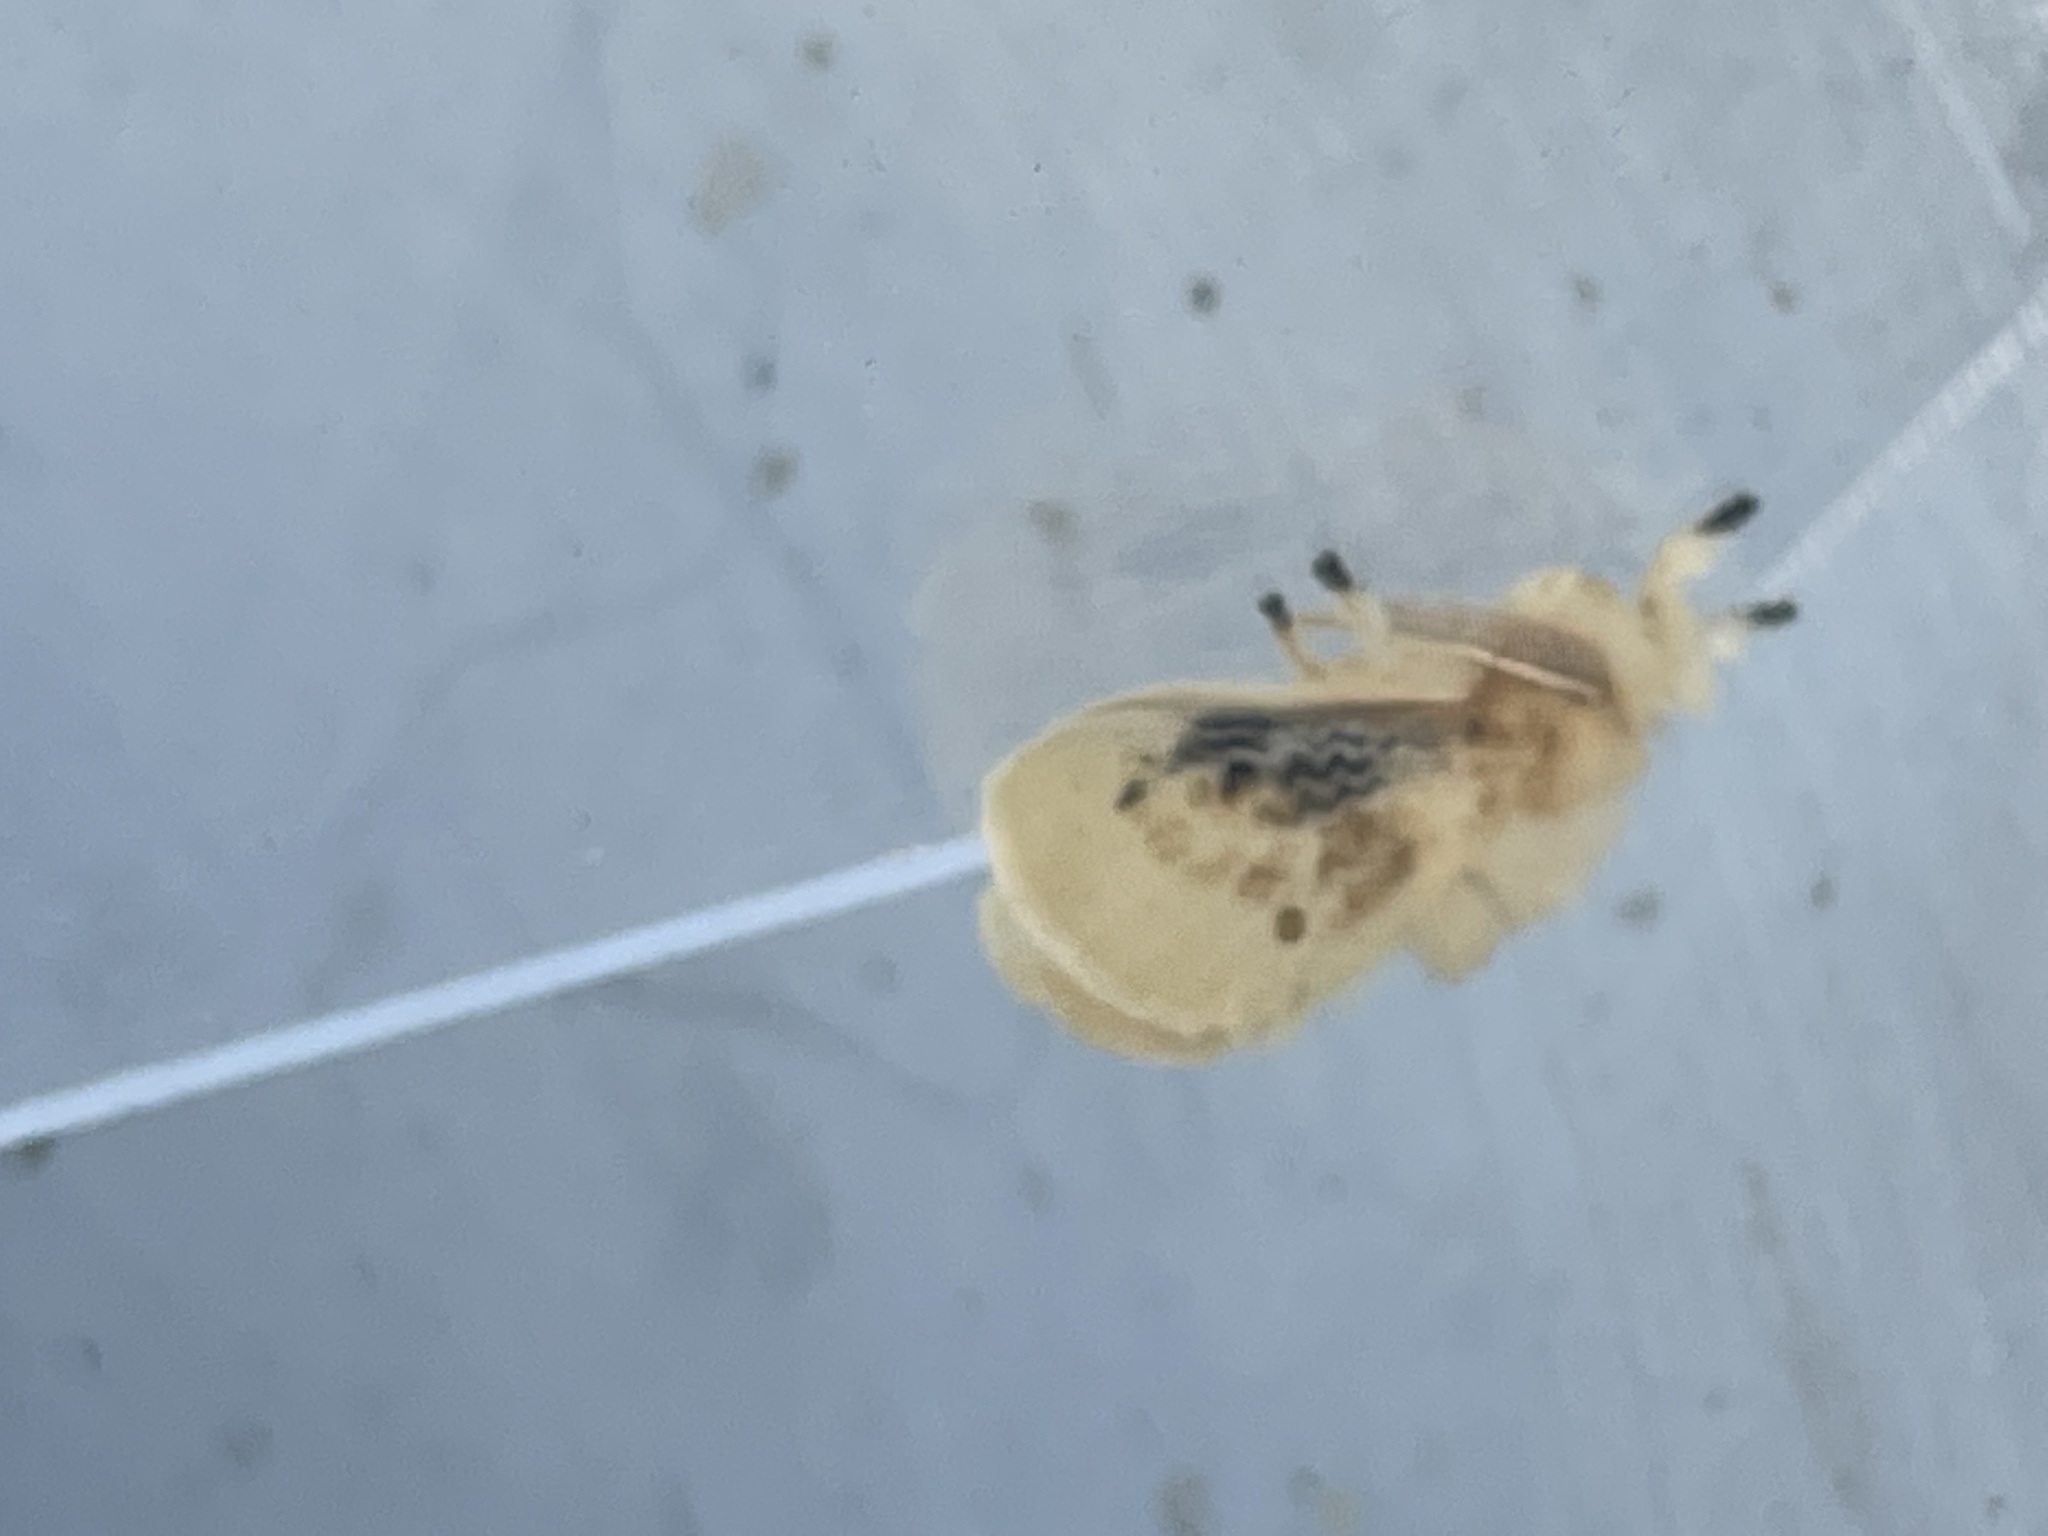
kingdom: Animalia
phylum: Arthropoda
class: Insecta
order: Lepidoptera
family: Megalopygidae
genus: Megalopyge
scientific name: Megalopyge crispata
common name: Black-waved flannel moth
